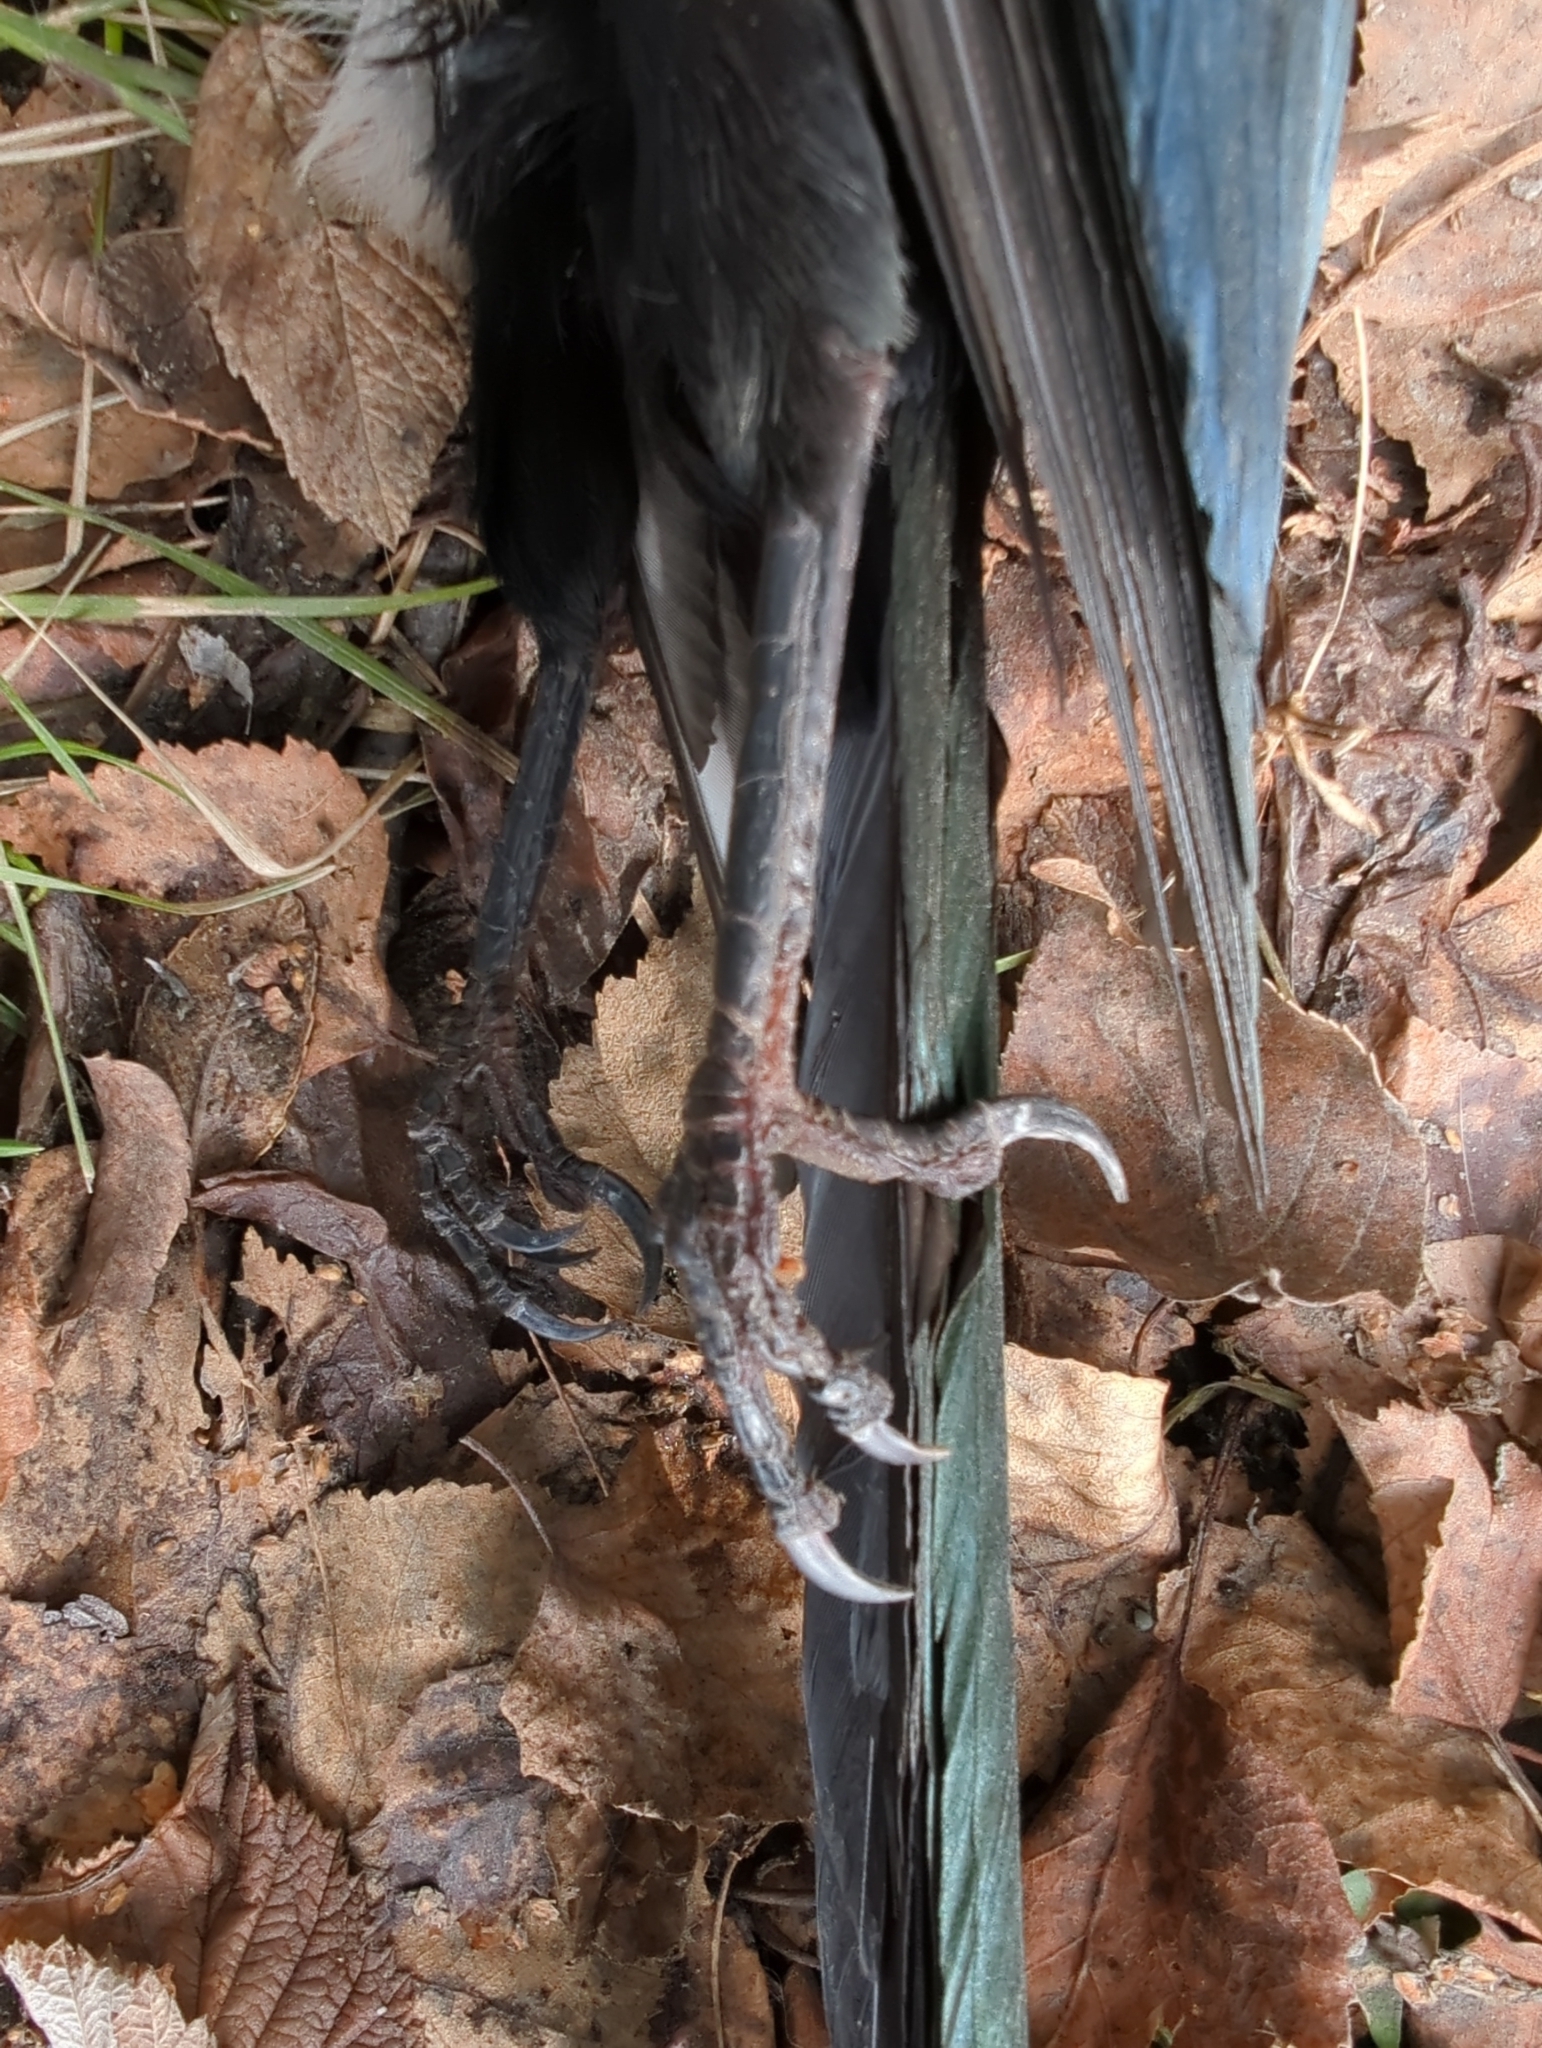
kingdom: Animalia
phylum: Chordata
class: Aves
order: Passeriformes
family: Corvidae
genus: Pica
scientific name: Pica hudsonia
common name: Black-billed magpie
